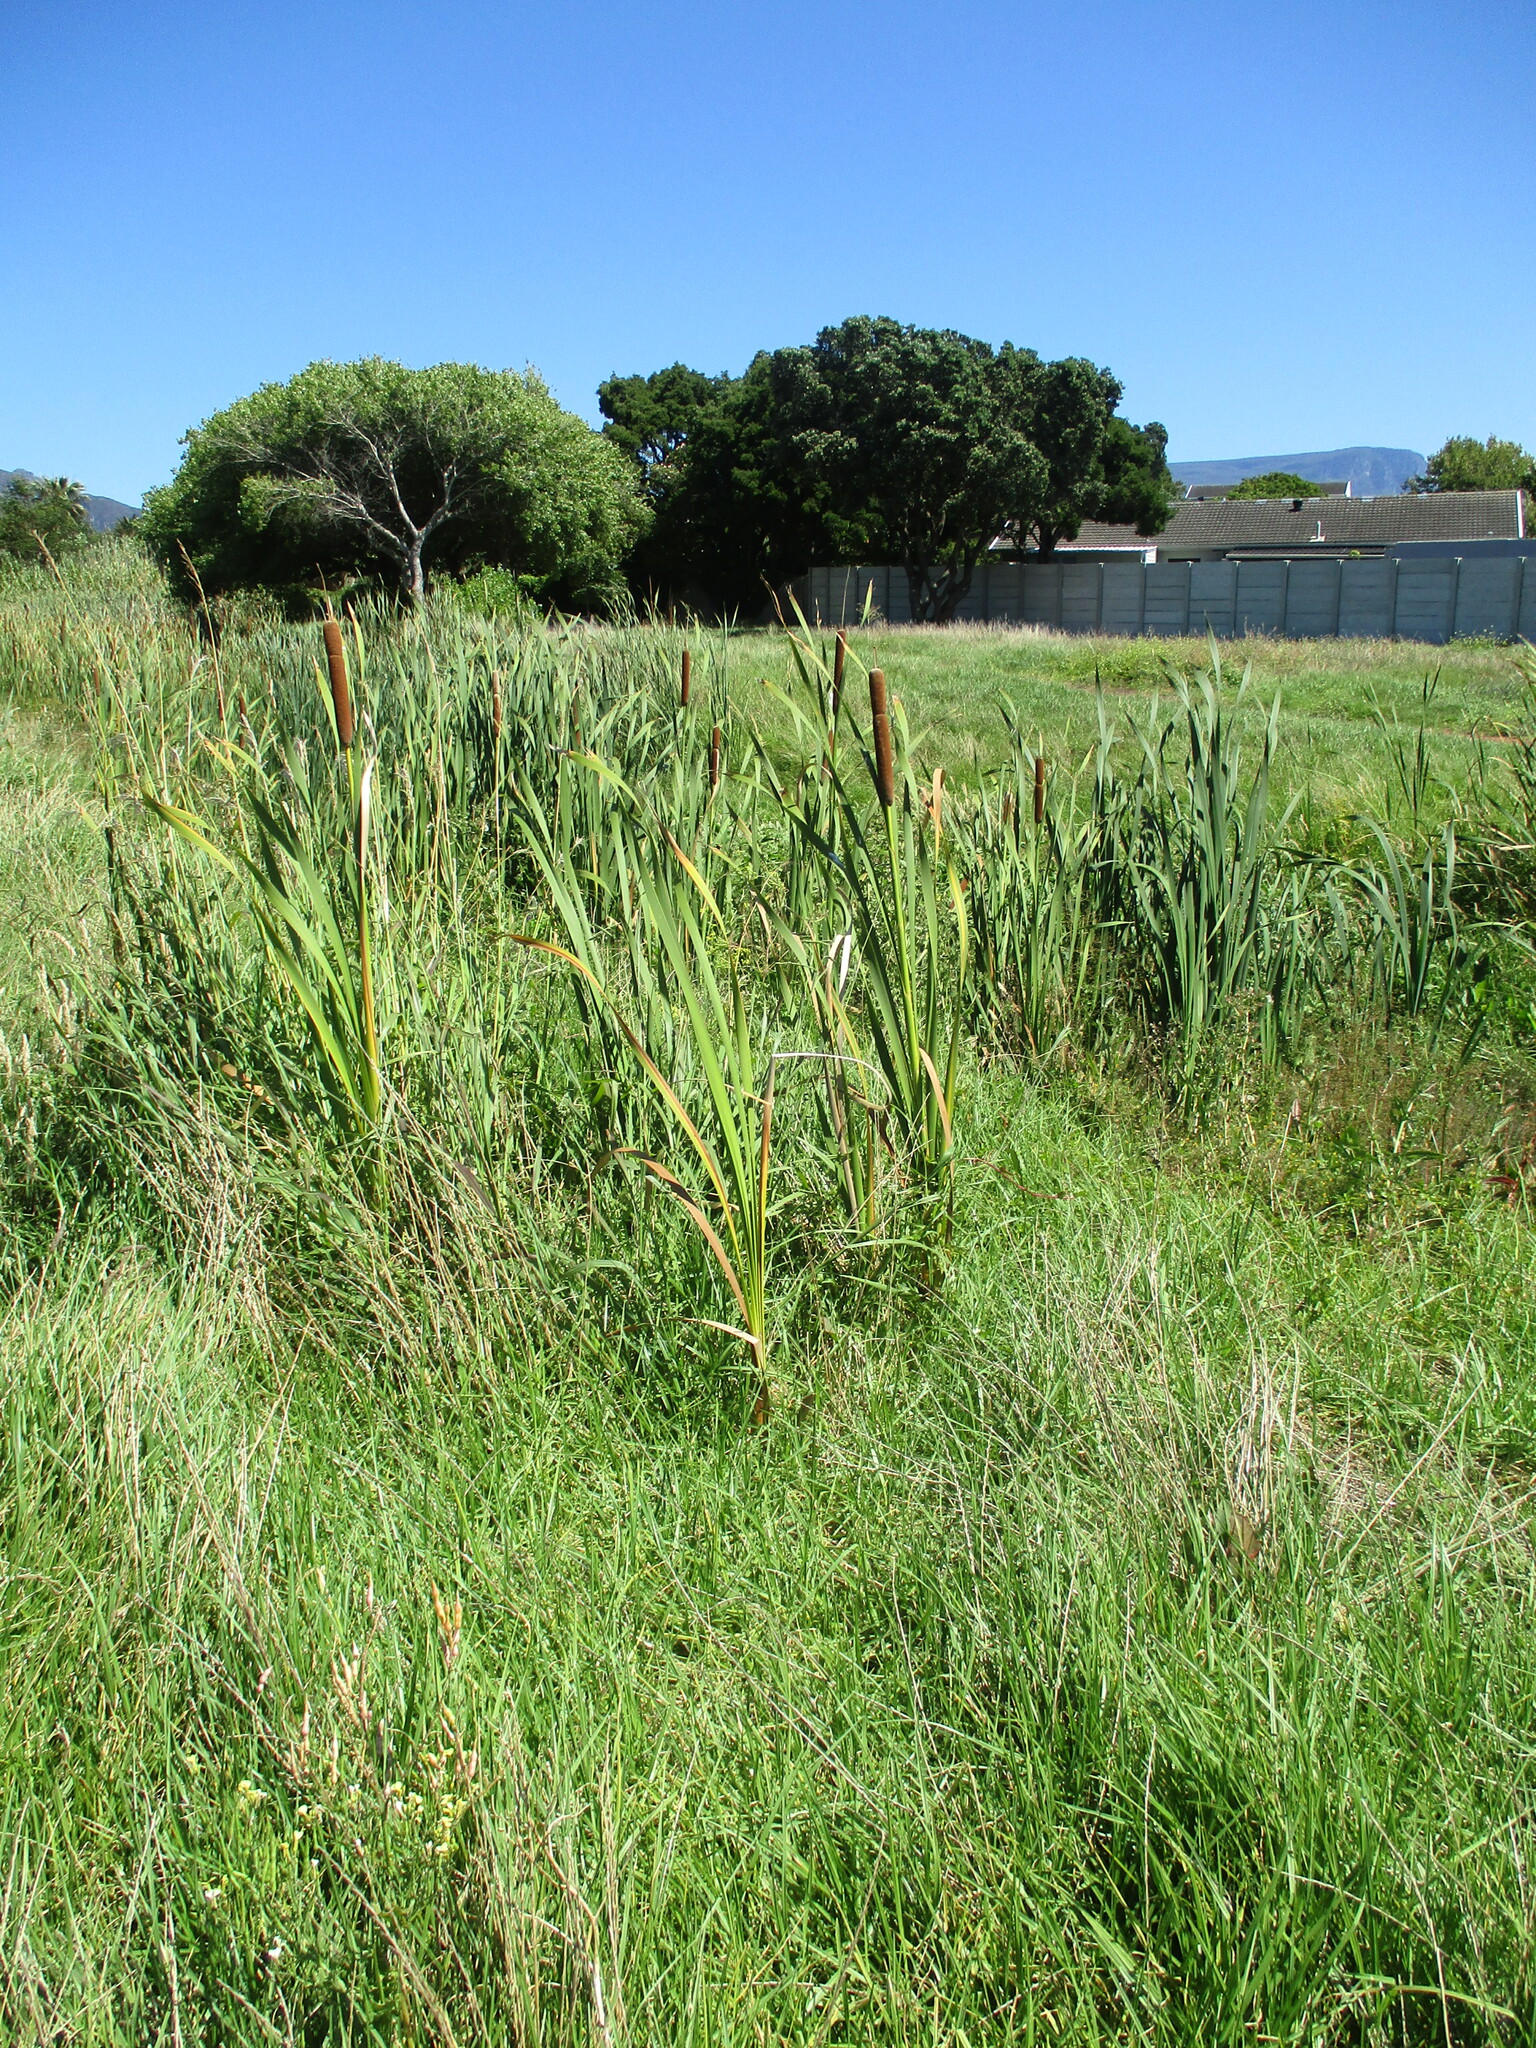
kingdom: Plantae
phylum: Tracheophyta
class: Liliopsida
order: Poales
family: Typhaceae
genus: Typha
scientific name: Typha capensis
